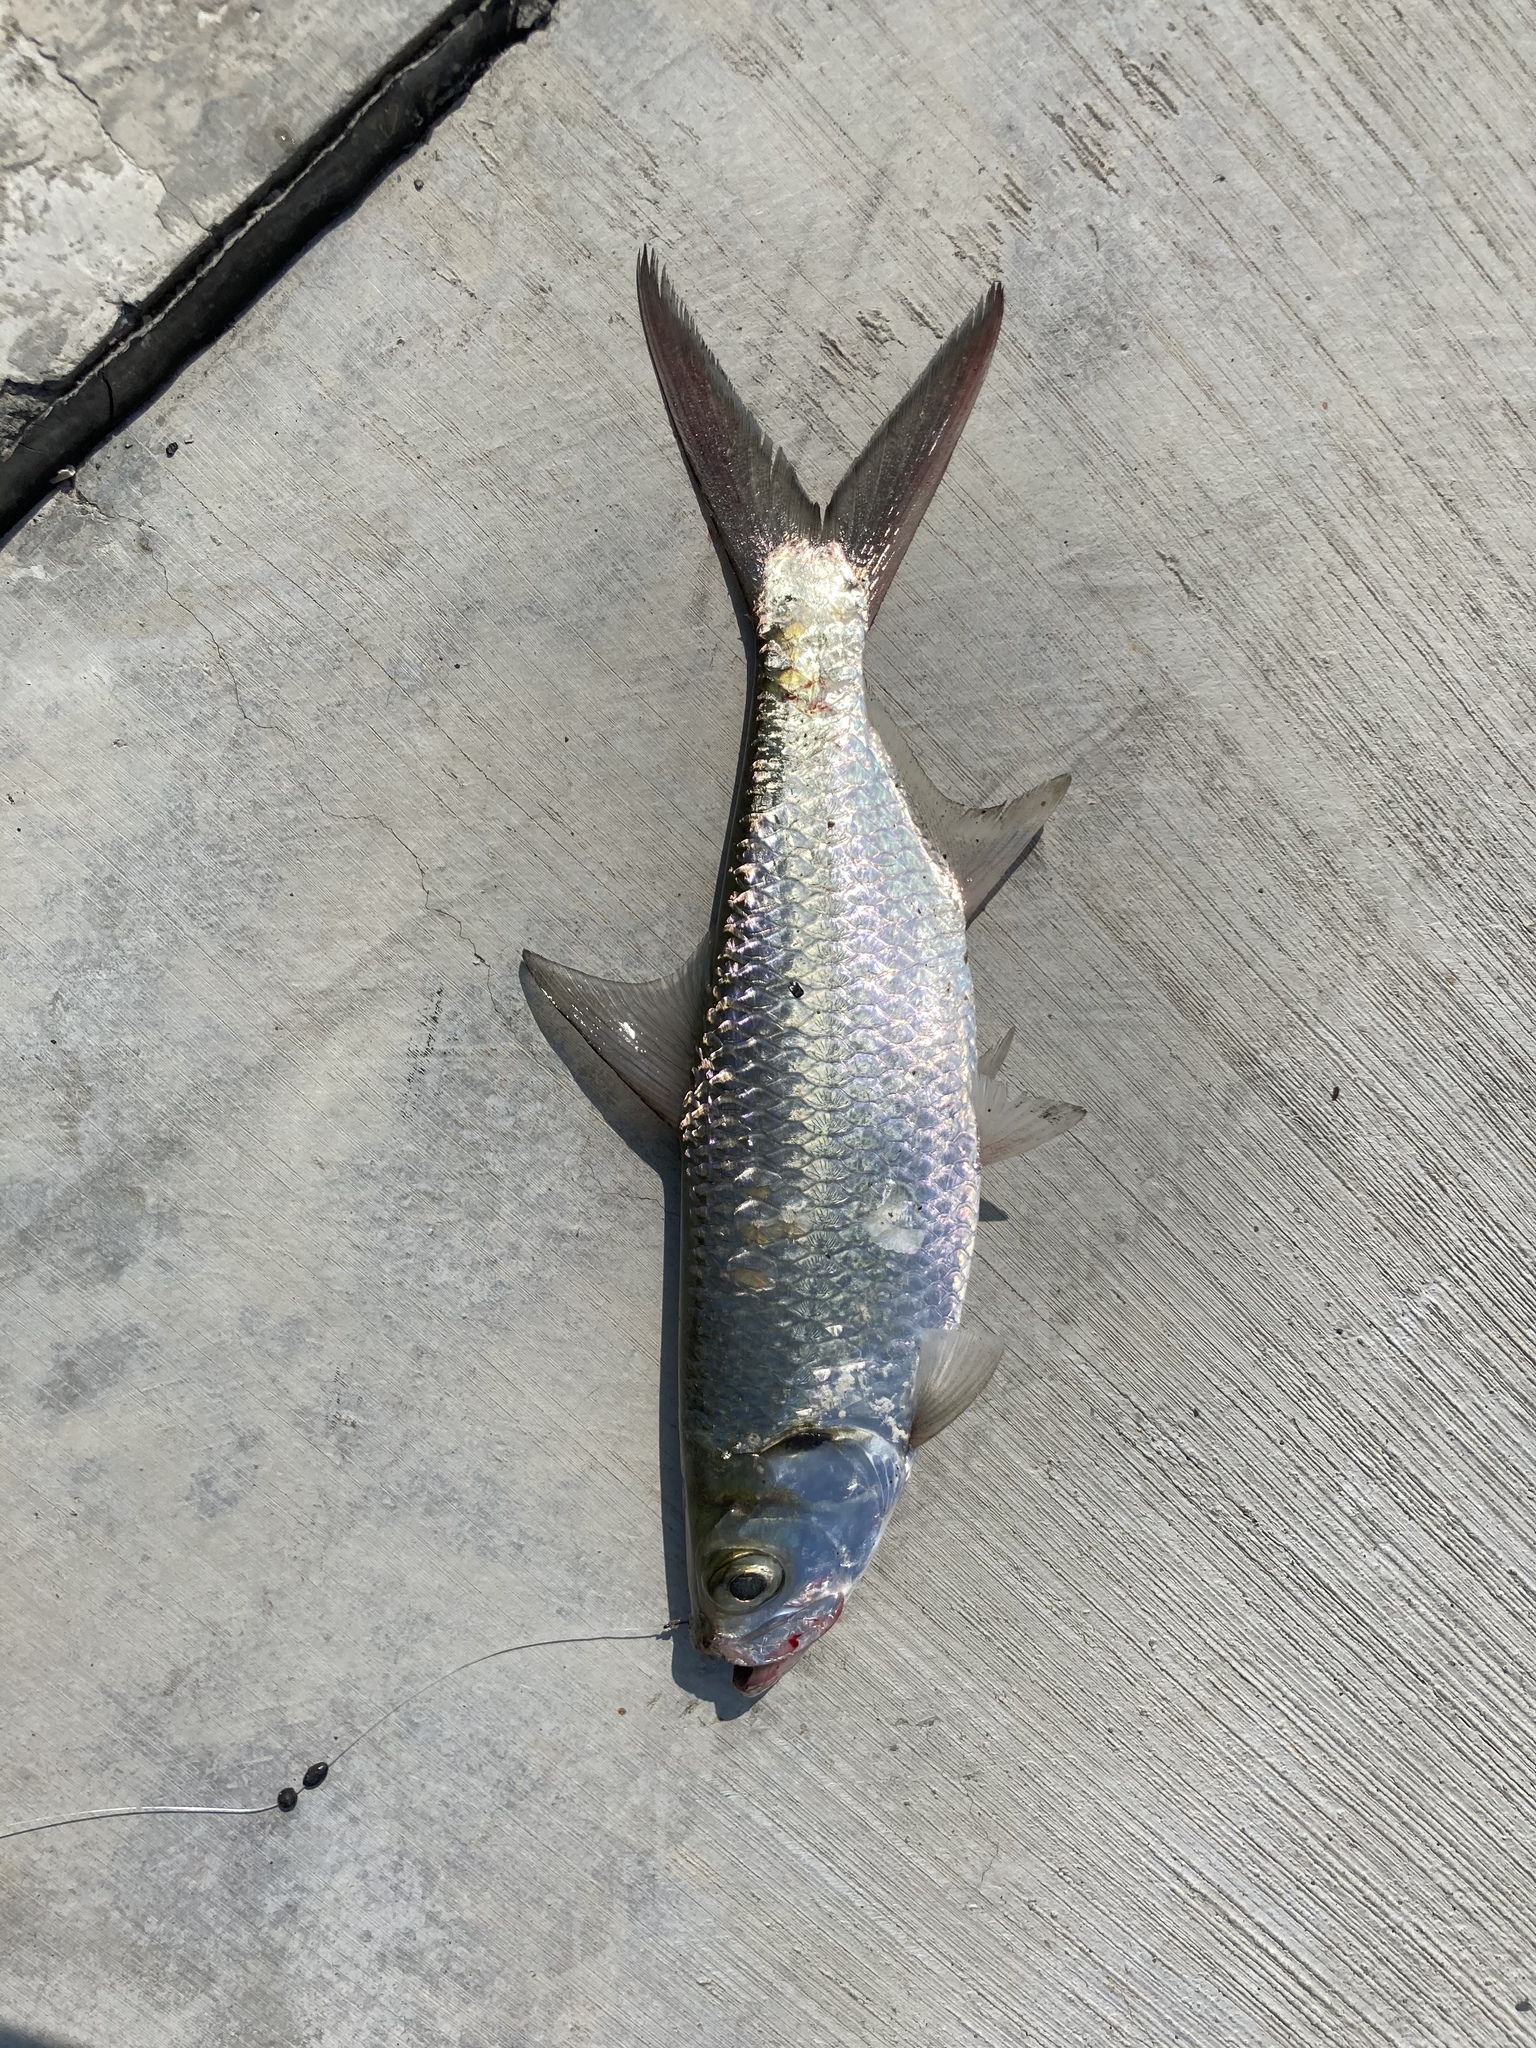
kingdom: Animalia
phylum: Chordata
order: Elopiformes
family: Megalopidae
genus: Megalops
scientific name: Megalops cyprinoides
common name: Indo-pacific tarpon
